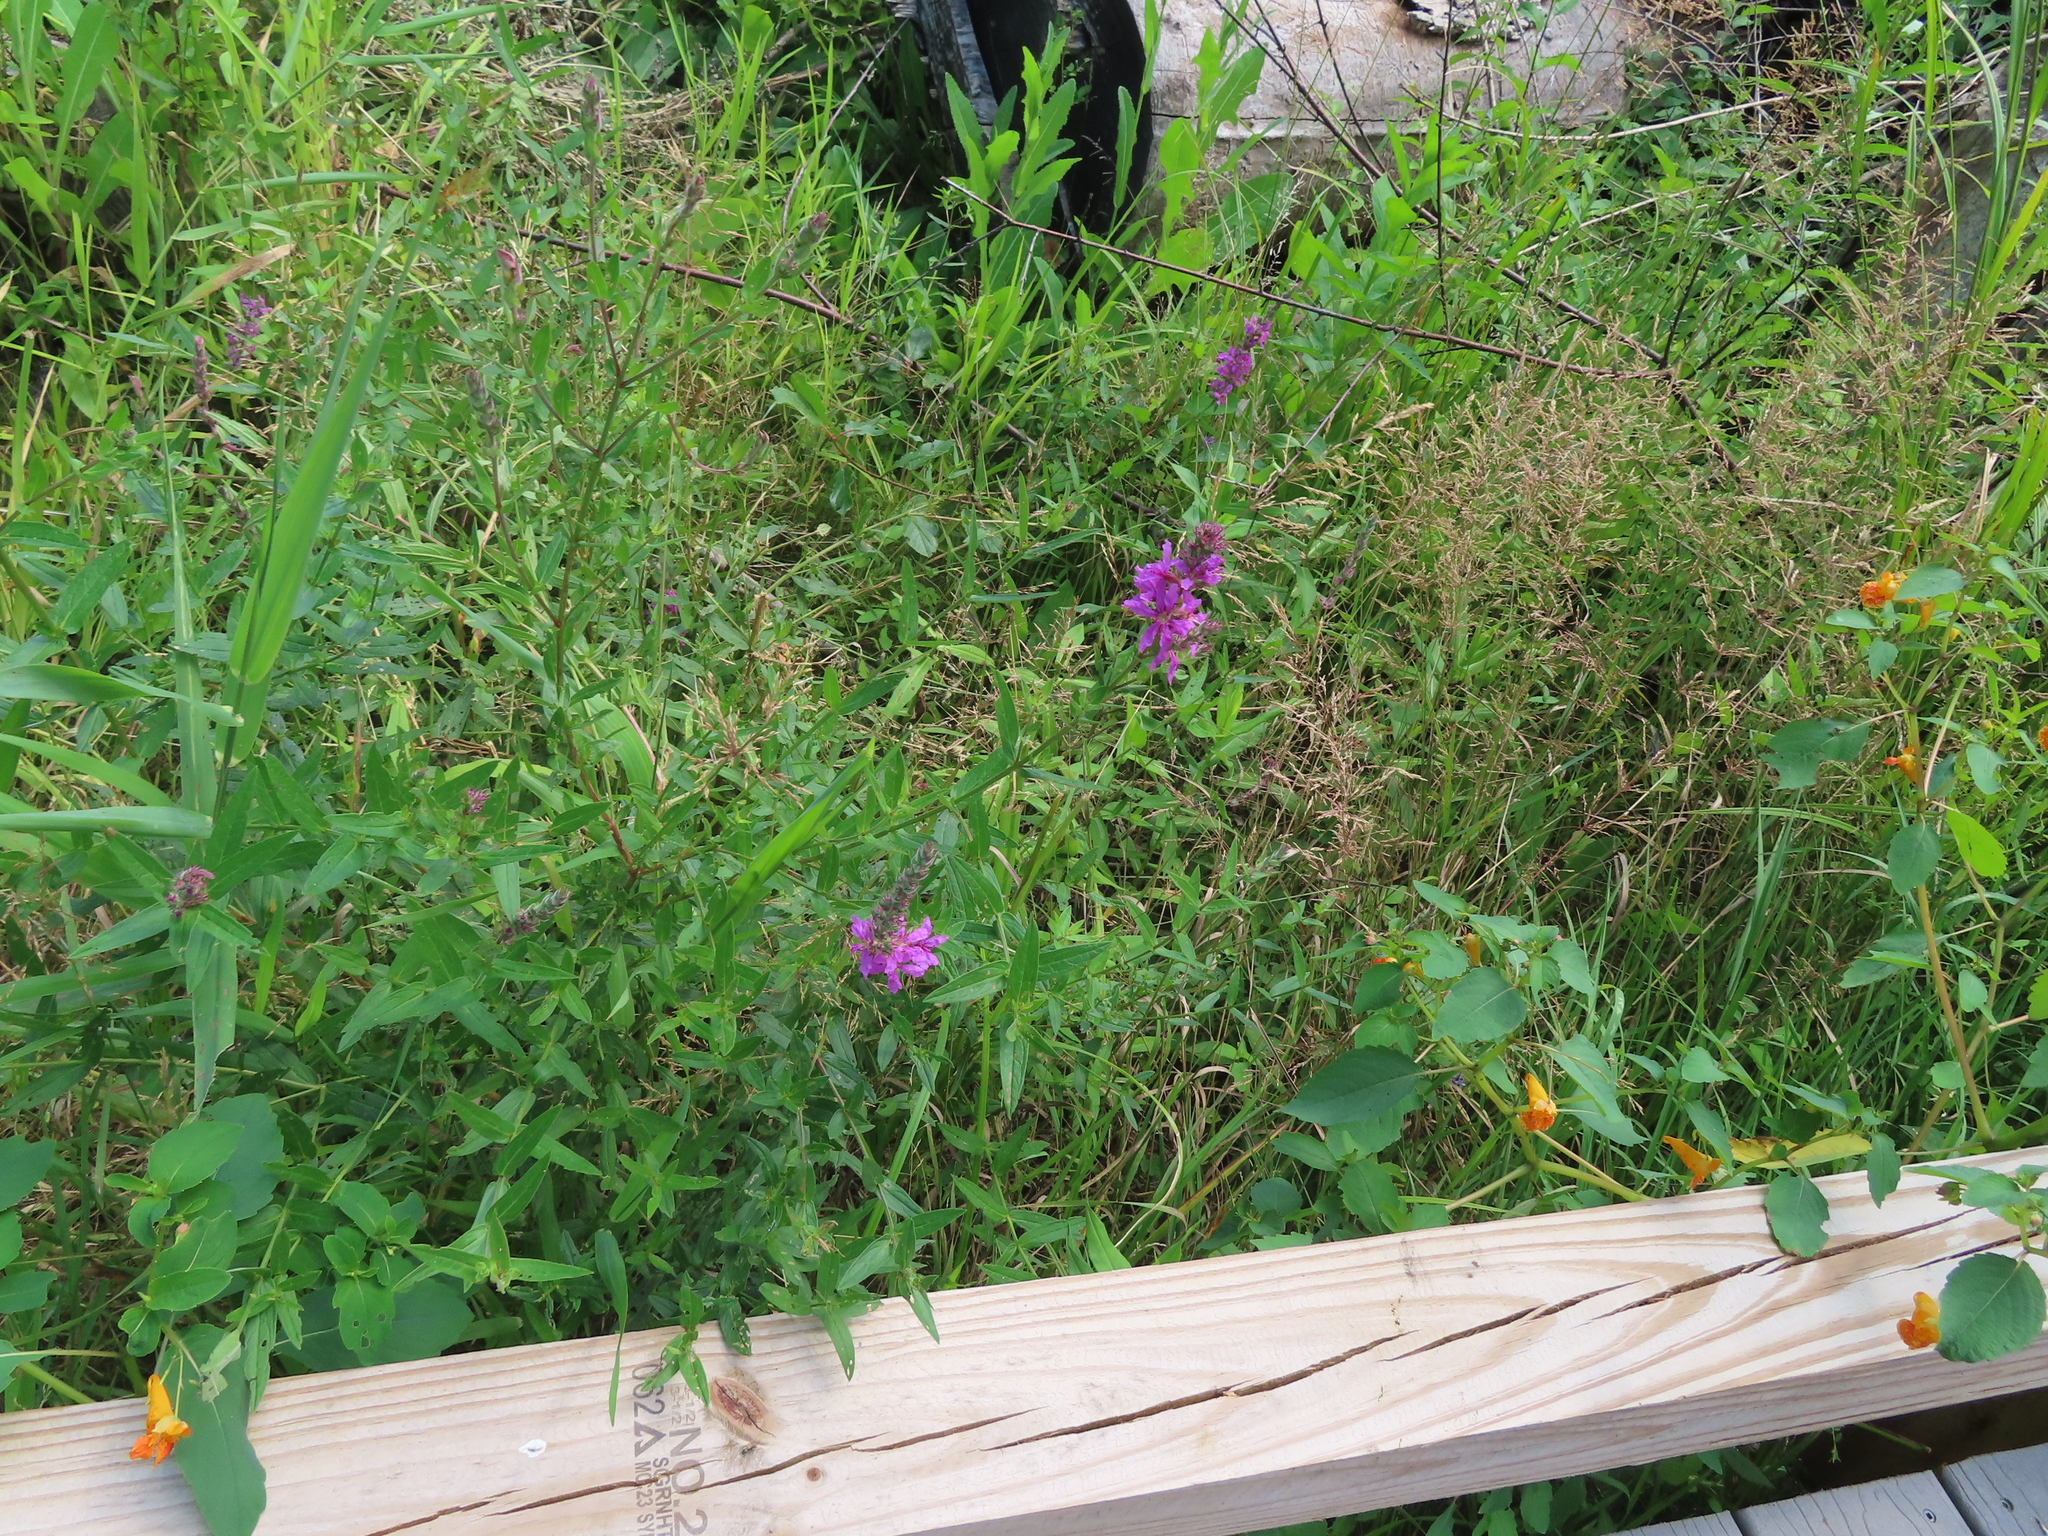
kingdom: Plantae
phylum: Tracheophyta
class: Magnoliopsida
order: Myrtales
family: Lythraceae
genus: Lythrum
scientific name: Lythrum salicaria
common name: Purple loosestrife
